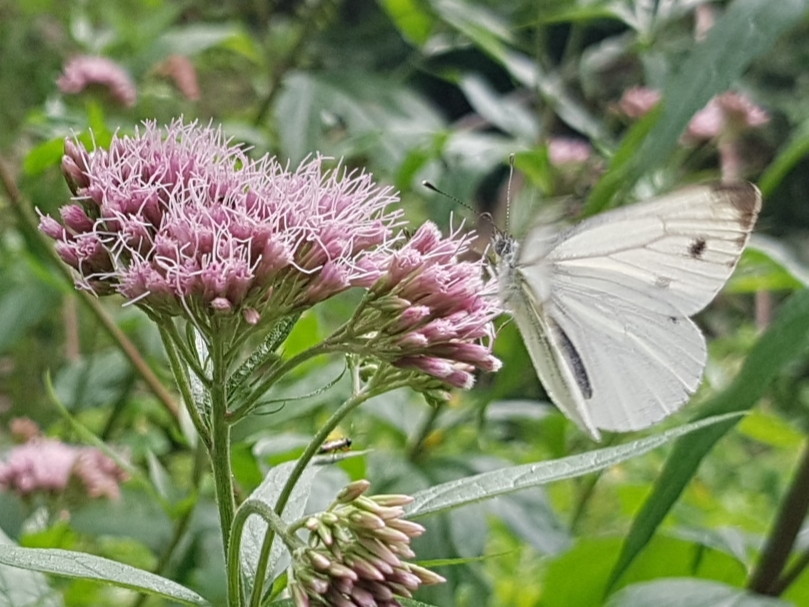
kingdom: Animalia
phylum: Arthropoda
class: Insecta
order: Lepidoptera
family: Pieridae
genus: Pieris
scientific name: Pieris napi
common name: Green-veined white
